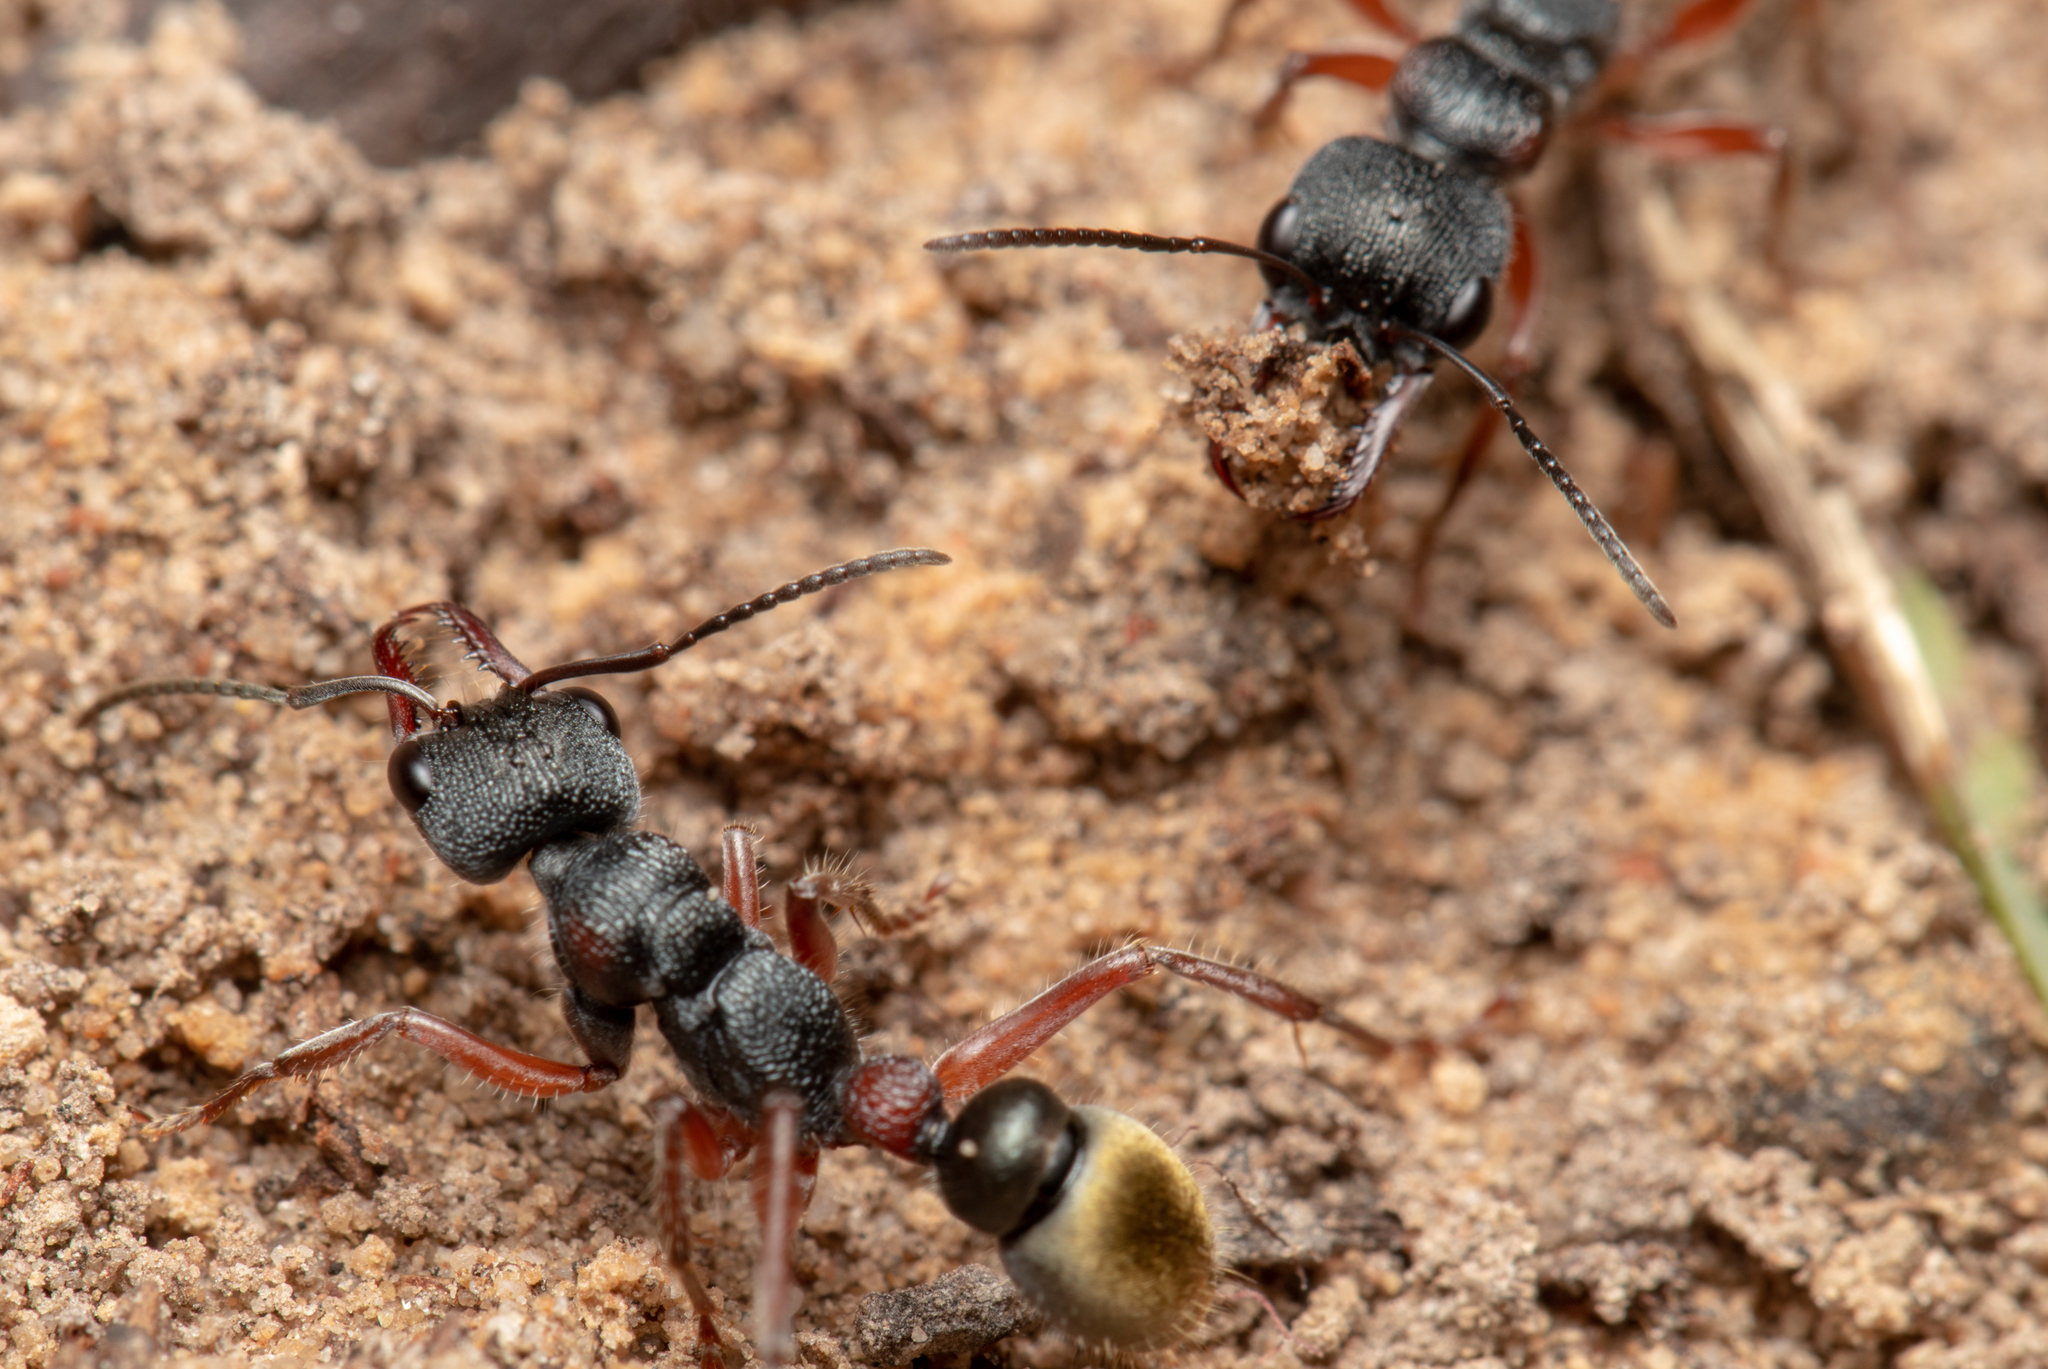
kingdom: Animalia
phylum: Arthropoda
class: Insecta
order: Hymenoptera
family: Formicidae
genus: Myrmecia
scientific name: Myrmecia chrysogaster
